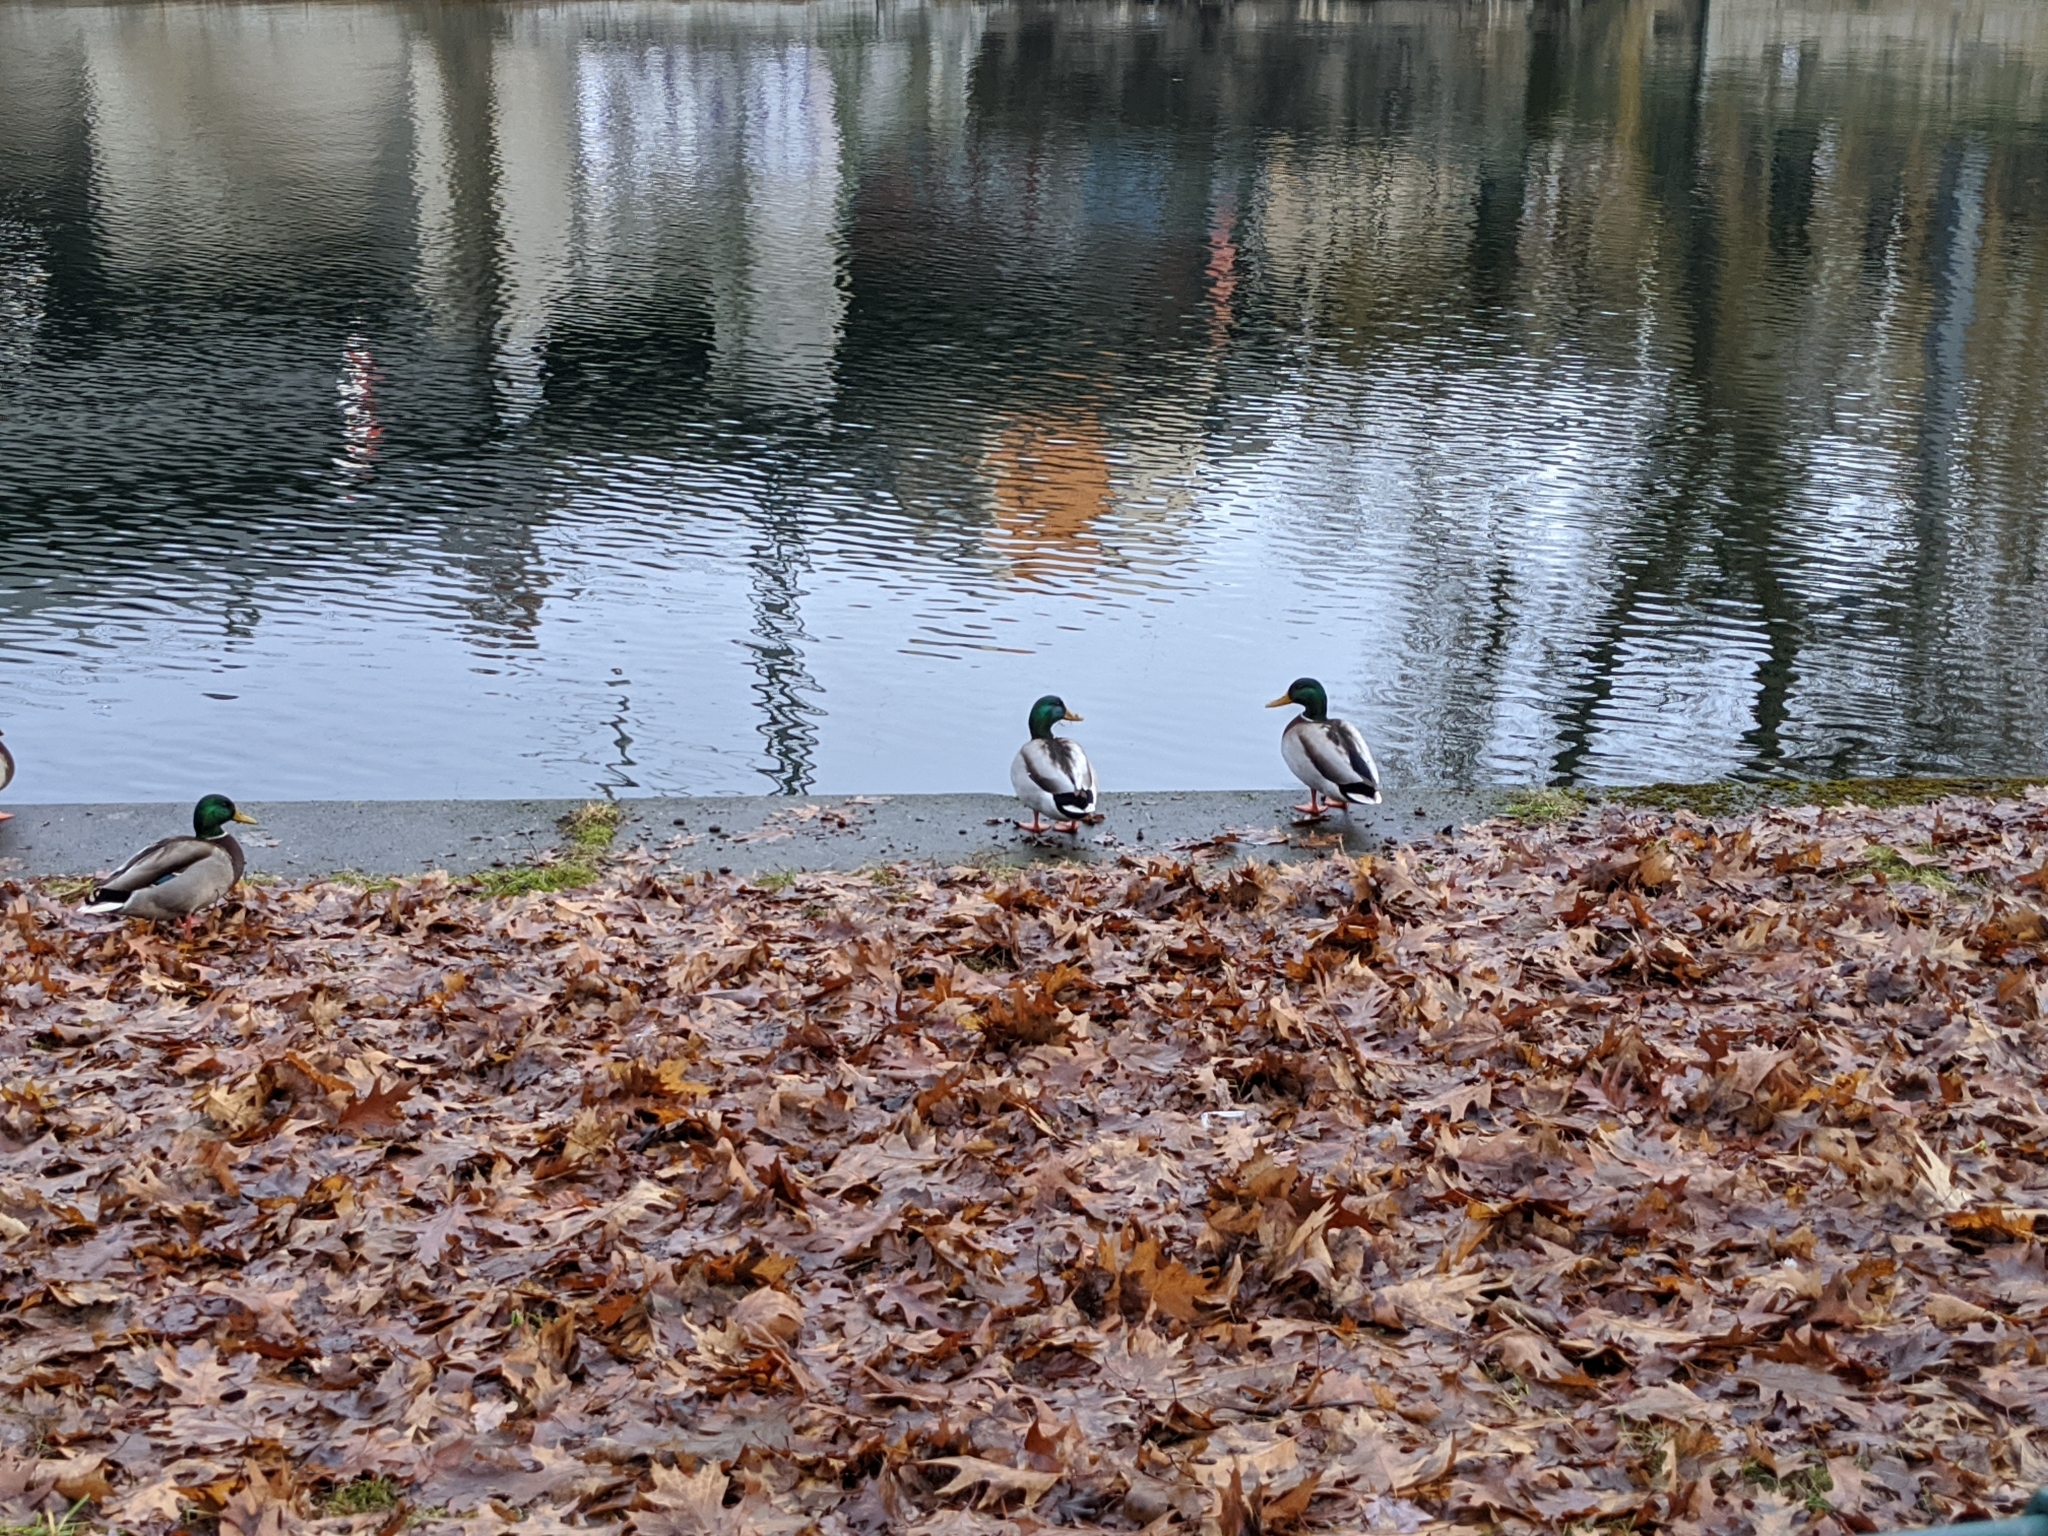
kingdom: Animalia
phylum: Chordata
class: Aves
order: Anseriformes
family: Anatidae
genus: Anas
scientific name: Anas platyrhynchos
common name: Mallard
